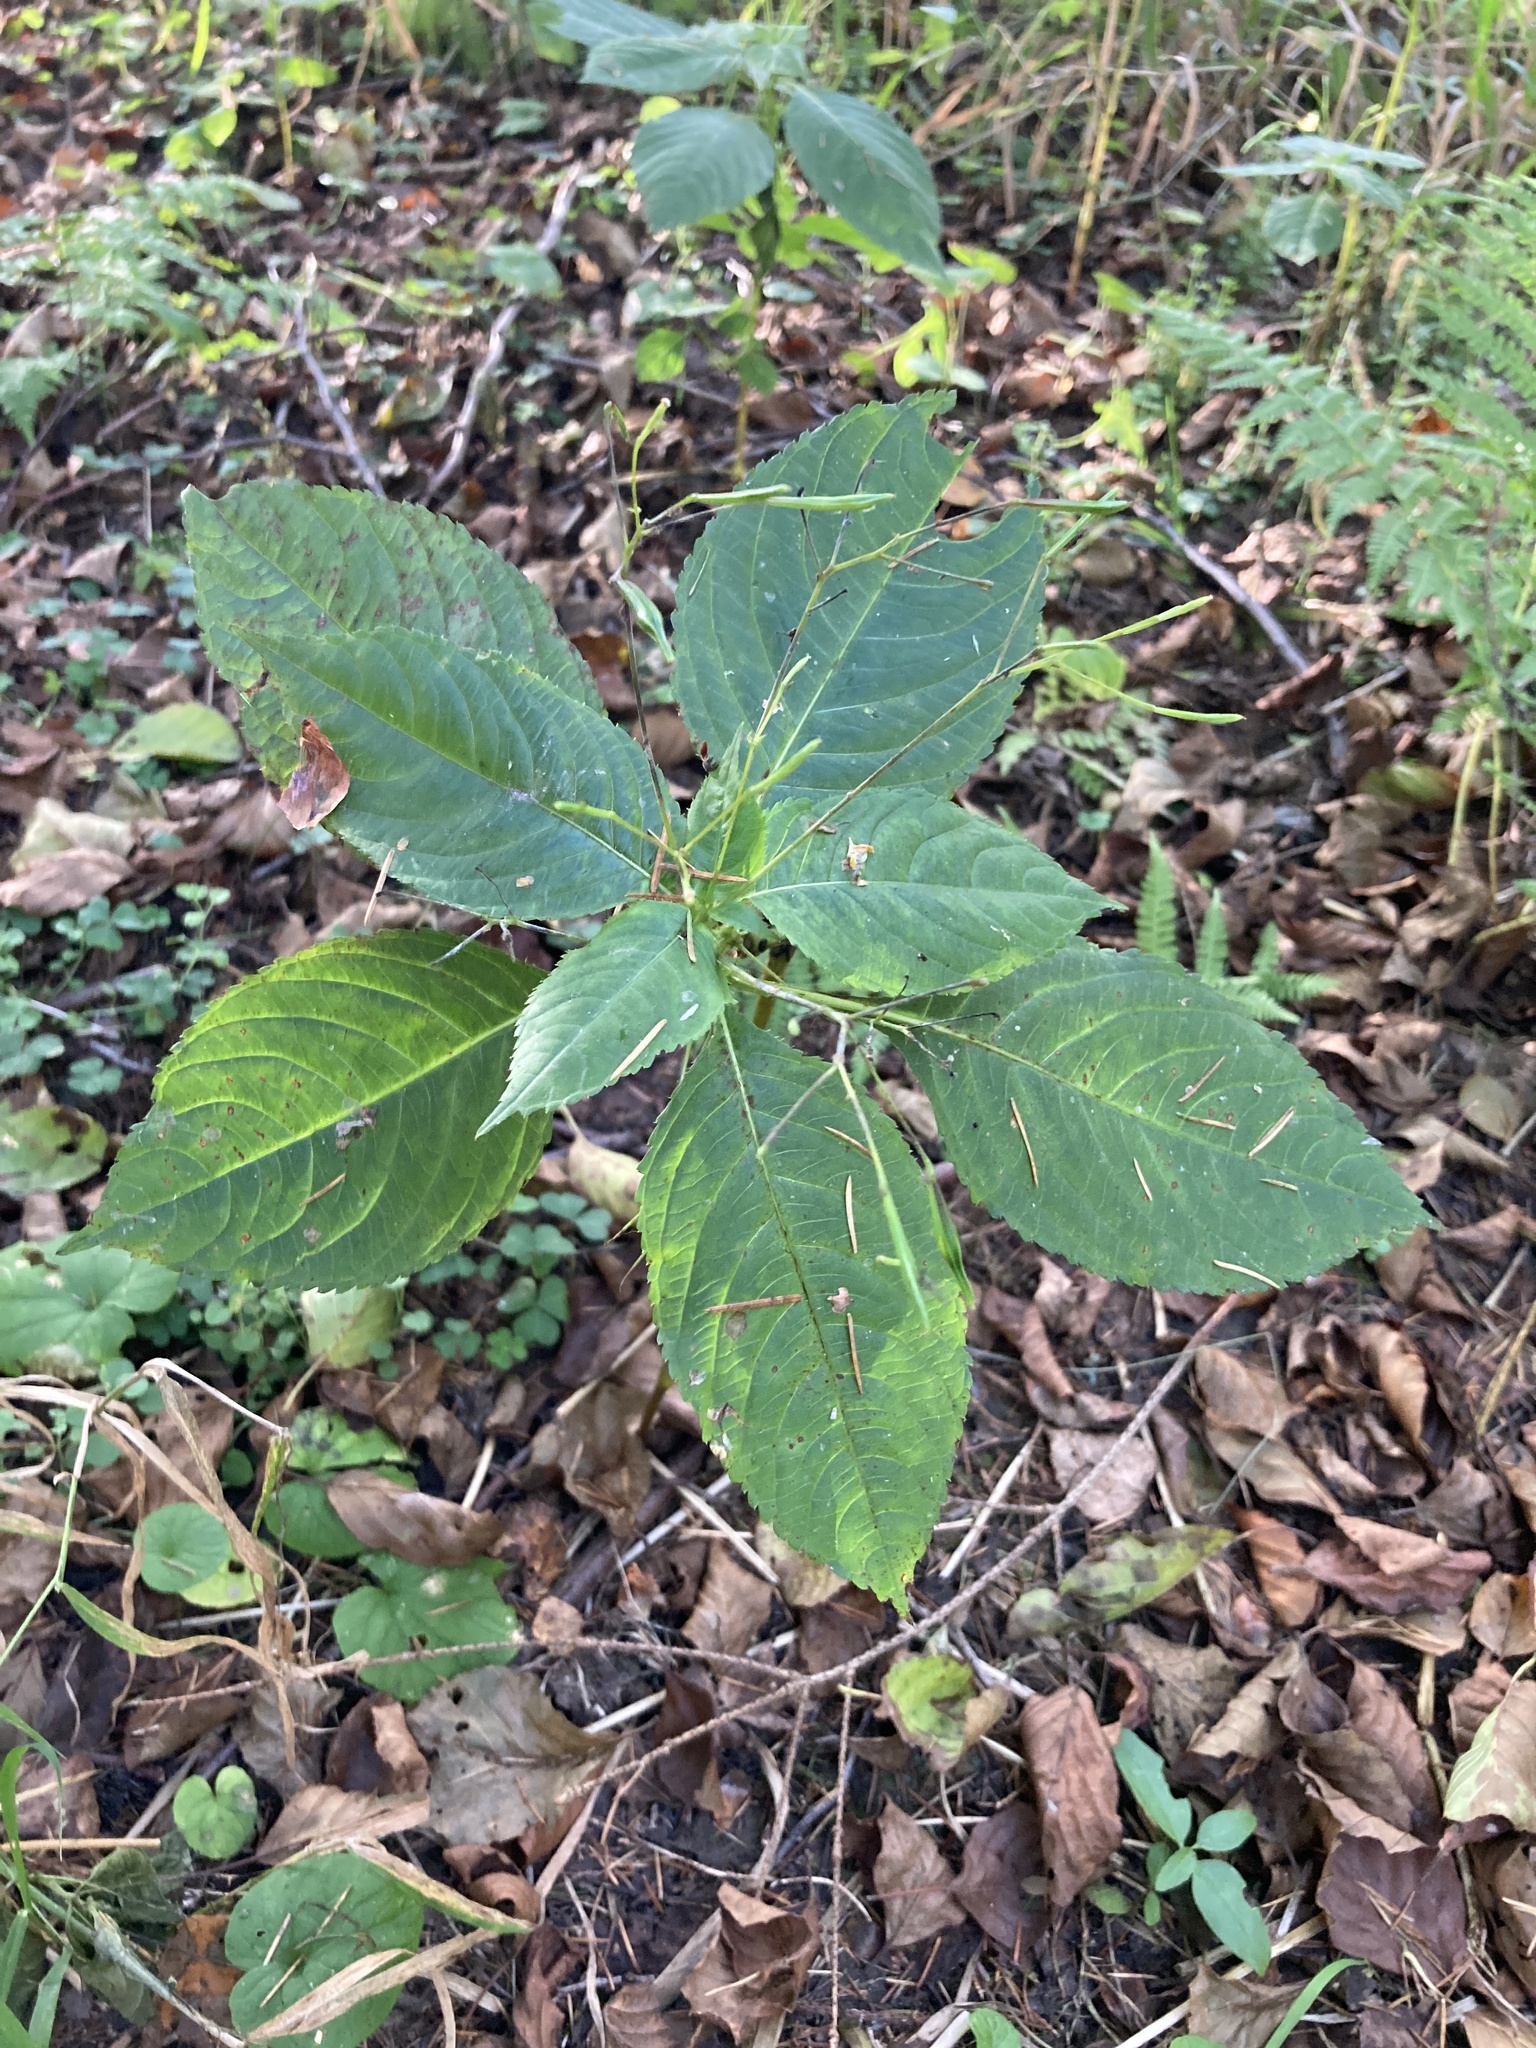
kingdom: Plantae
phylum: Tracheophyta
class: Magnoliopsida
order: Ericales
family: Balsaminaceae
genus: Impatiens
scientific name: Impatiens parviflora
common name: Small balsam
